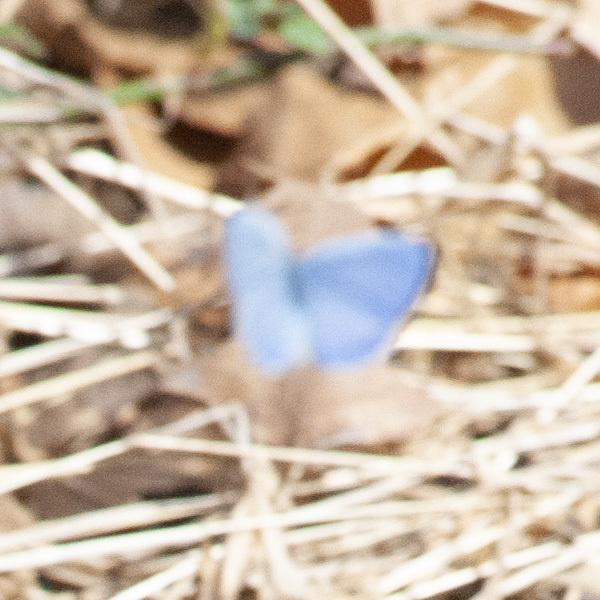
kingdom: Animalia
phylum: Arthropoda
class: Insecta
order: Lepidoptera
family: Lycaenidae
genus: Cyaniris
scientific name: Cyaniris neglecta
